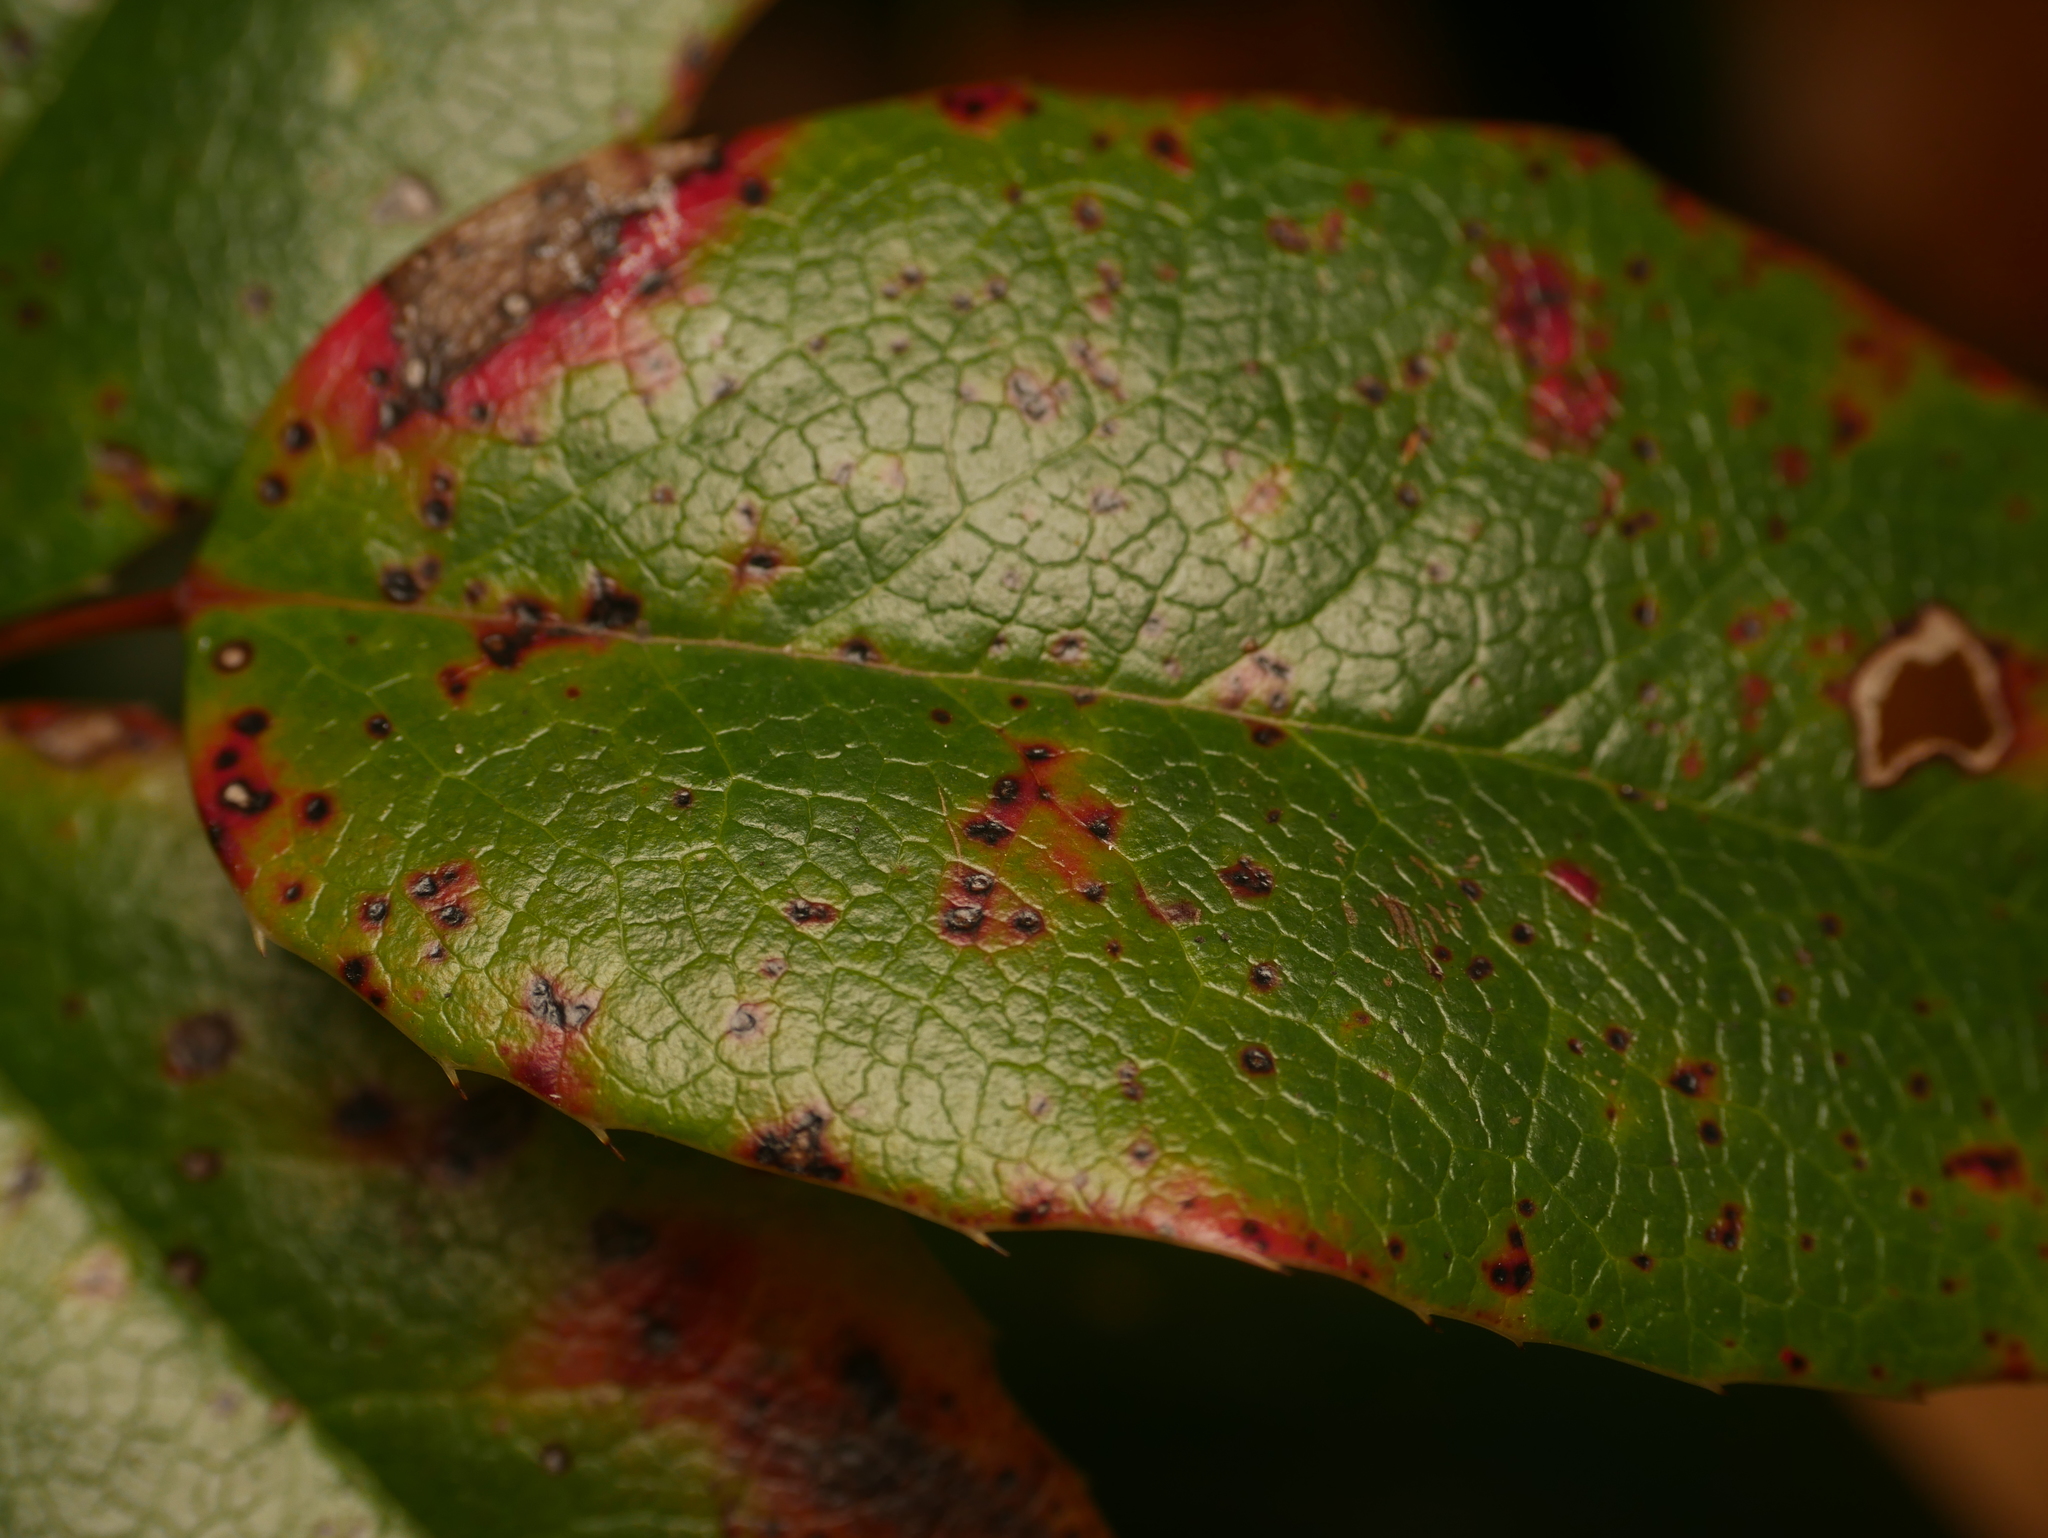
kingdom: Fungi
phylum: Basidiomycota
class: Pucciniomycetes
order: Pucciniales
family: Pucciniaceae
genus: Cumminsiella
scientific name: Cumminsiella mirabilissima
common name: Mahonia rust
